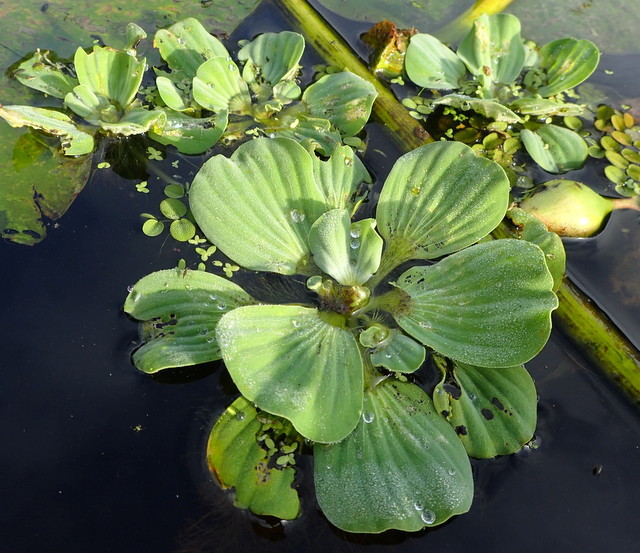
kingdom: Plantae
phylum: Tracheophyta
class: Liliopsida
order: Alismatales
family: Araceae
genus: Pistia
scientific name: Pistia stratiotes
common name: Water lettuce
